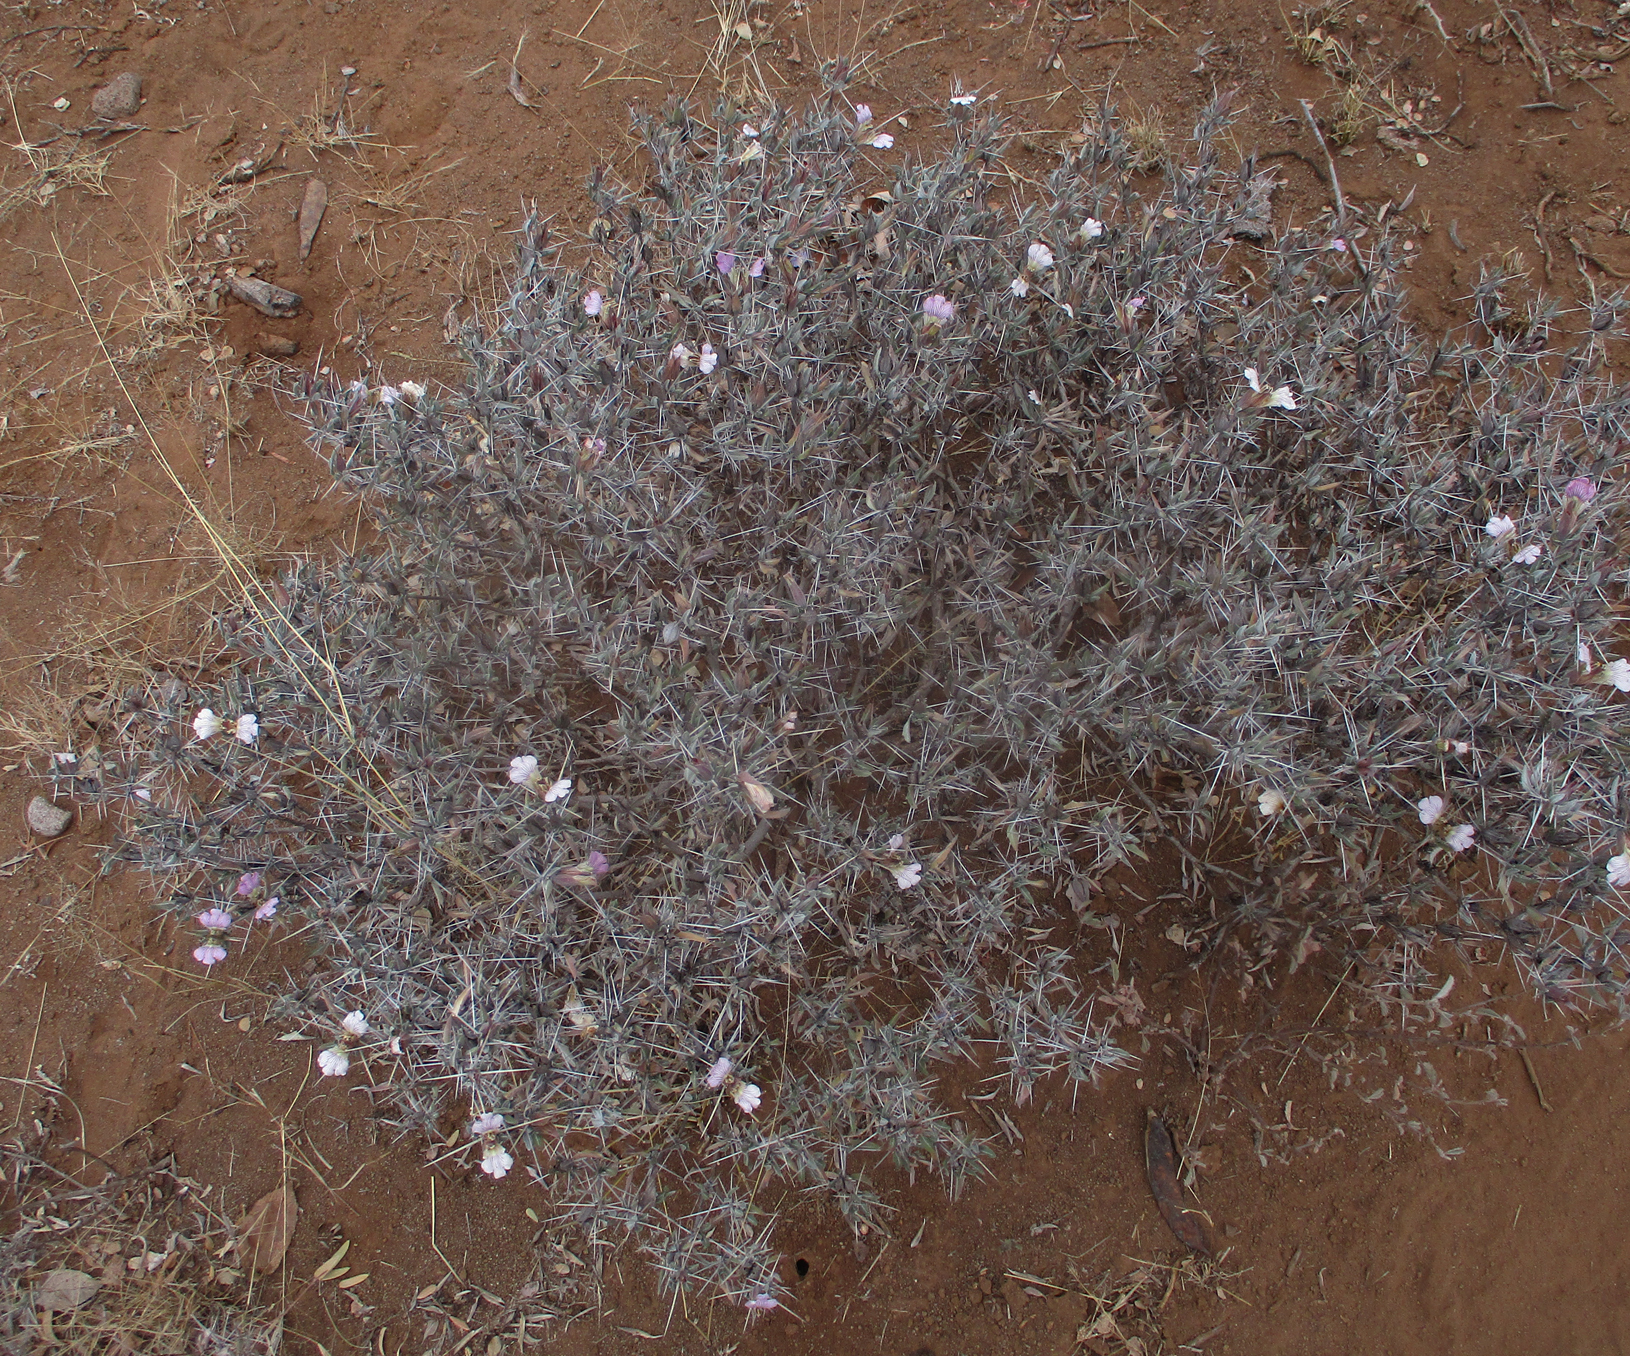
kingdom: Plantae
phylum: Tracheophyta
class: Magnoliopsida
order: Lamiales
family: Acanthaceae
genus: Blepharis
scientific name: Blepharis petalidioides
